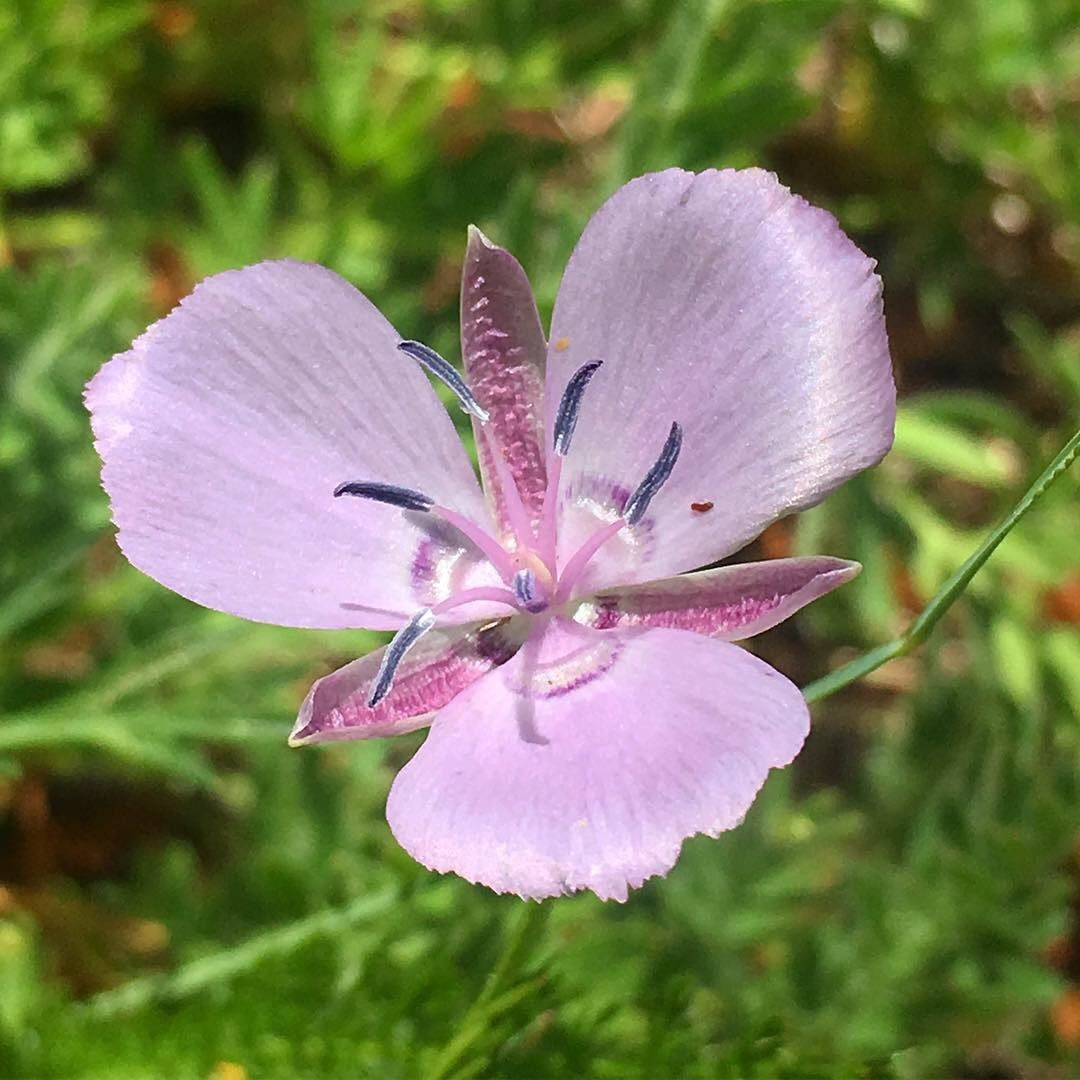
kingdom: Plantae
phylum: Tracheophyta
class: Liliopsida
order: Liliales
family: Liliaceae
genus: Calochortus
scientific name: Calochortus nudus
